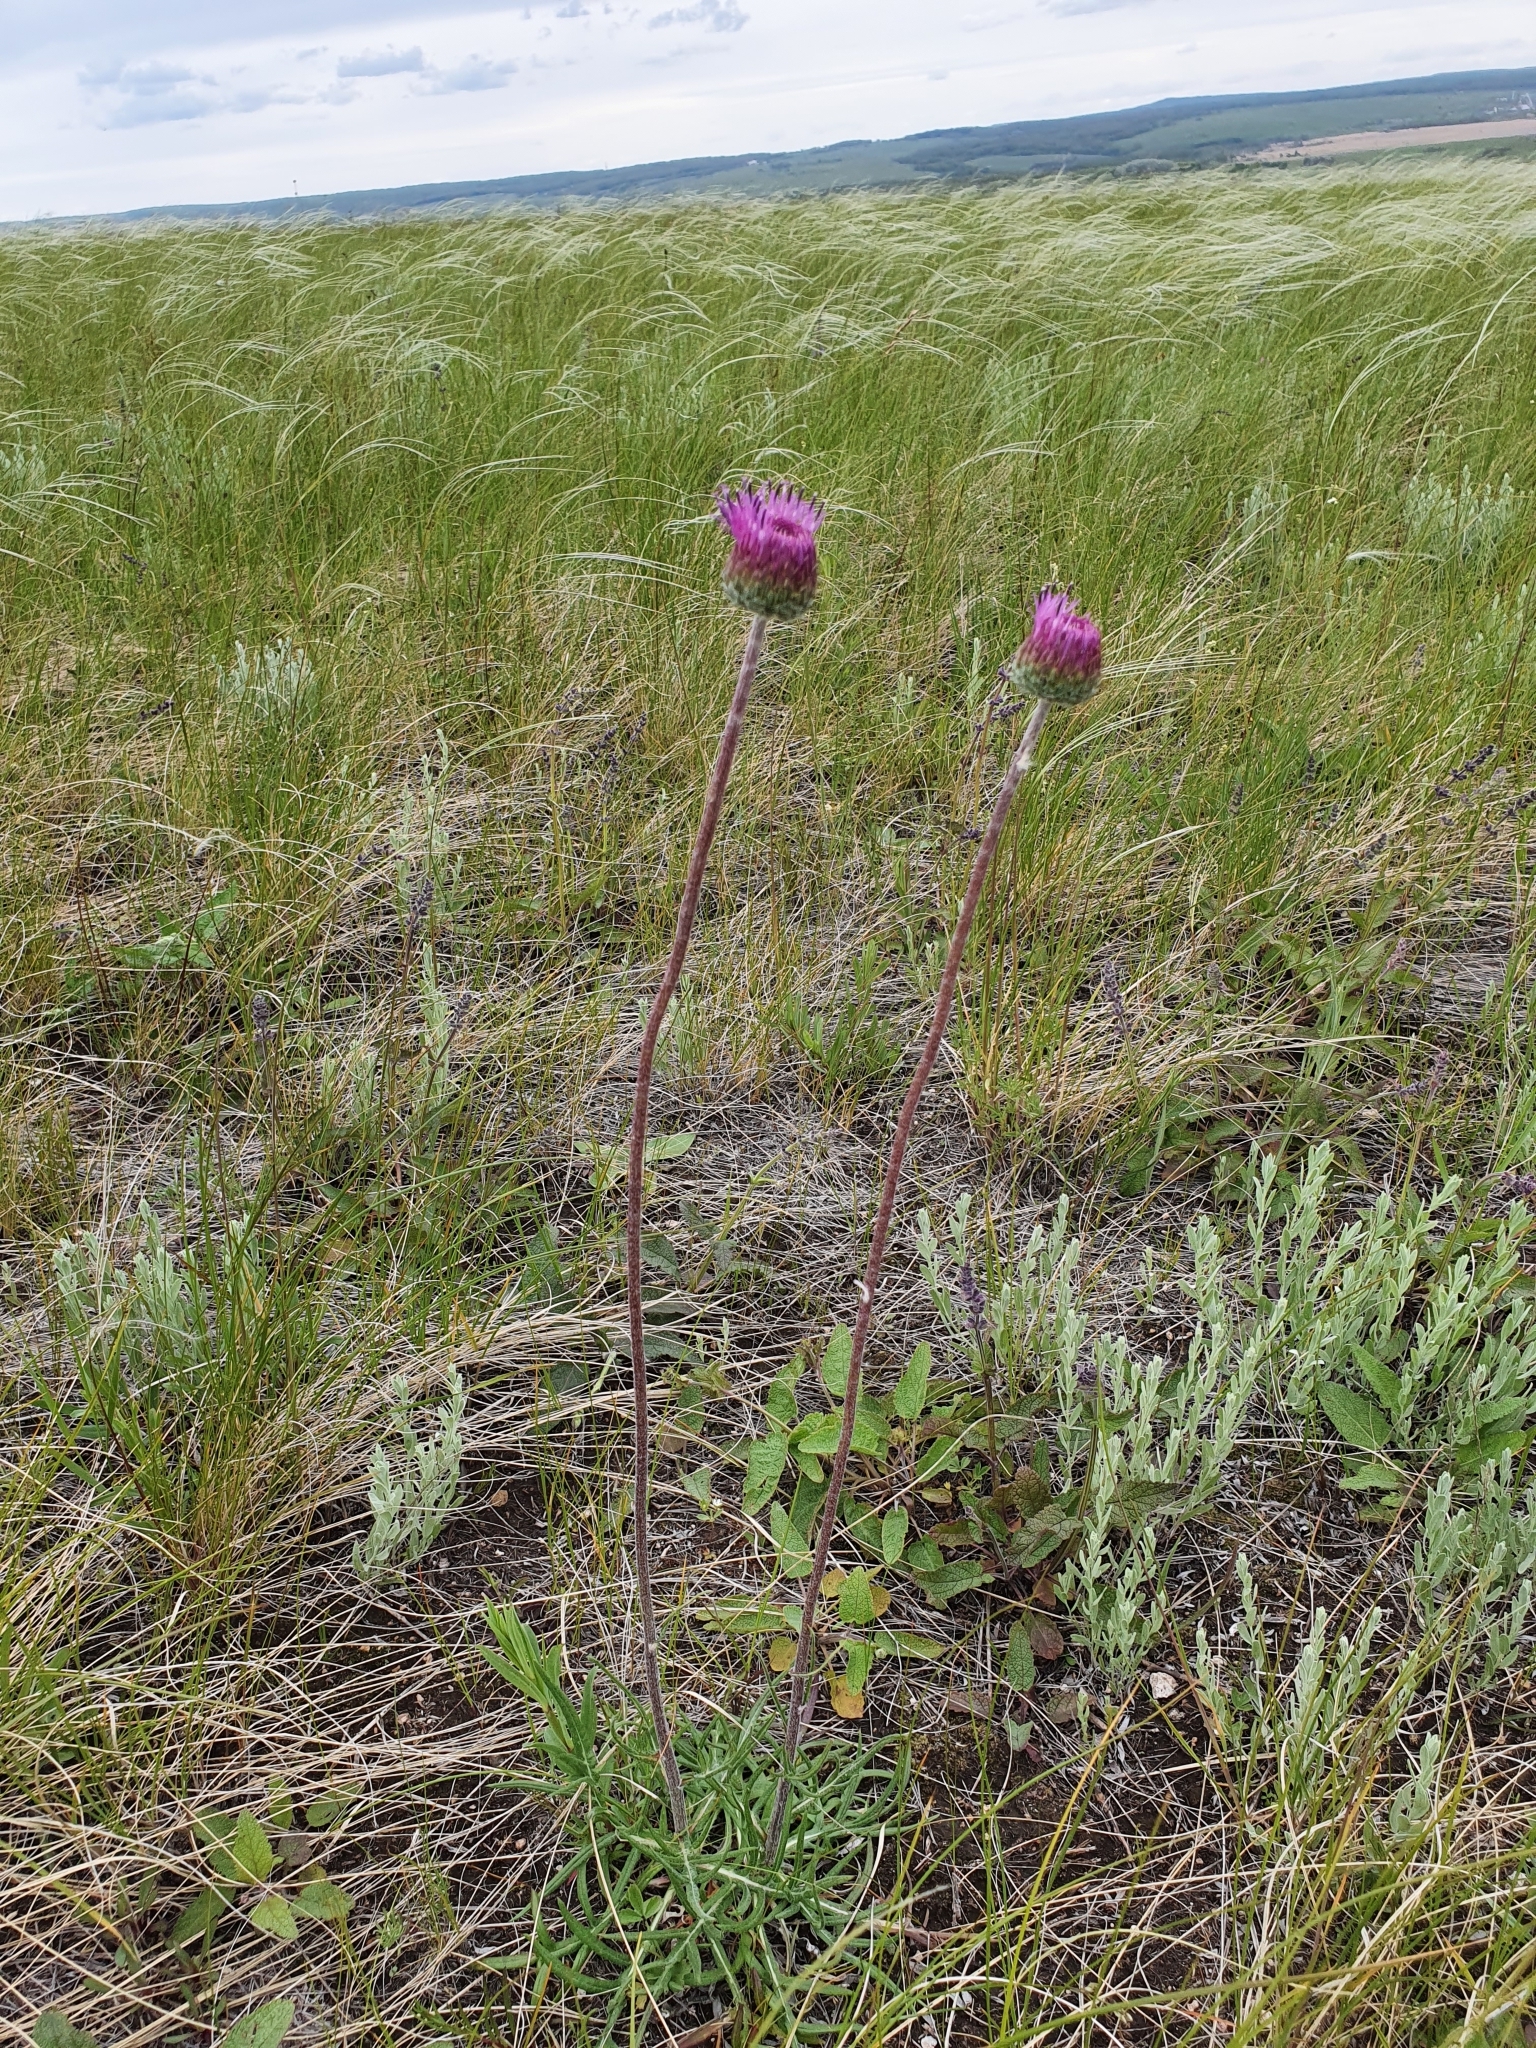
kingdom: Plantae
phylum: Tracheophyta
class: Magnoliopsida
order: Asterales
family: Asteraceae
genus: Jurinea
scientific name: Jurinea ledebourii
